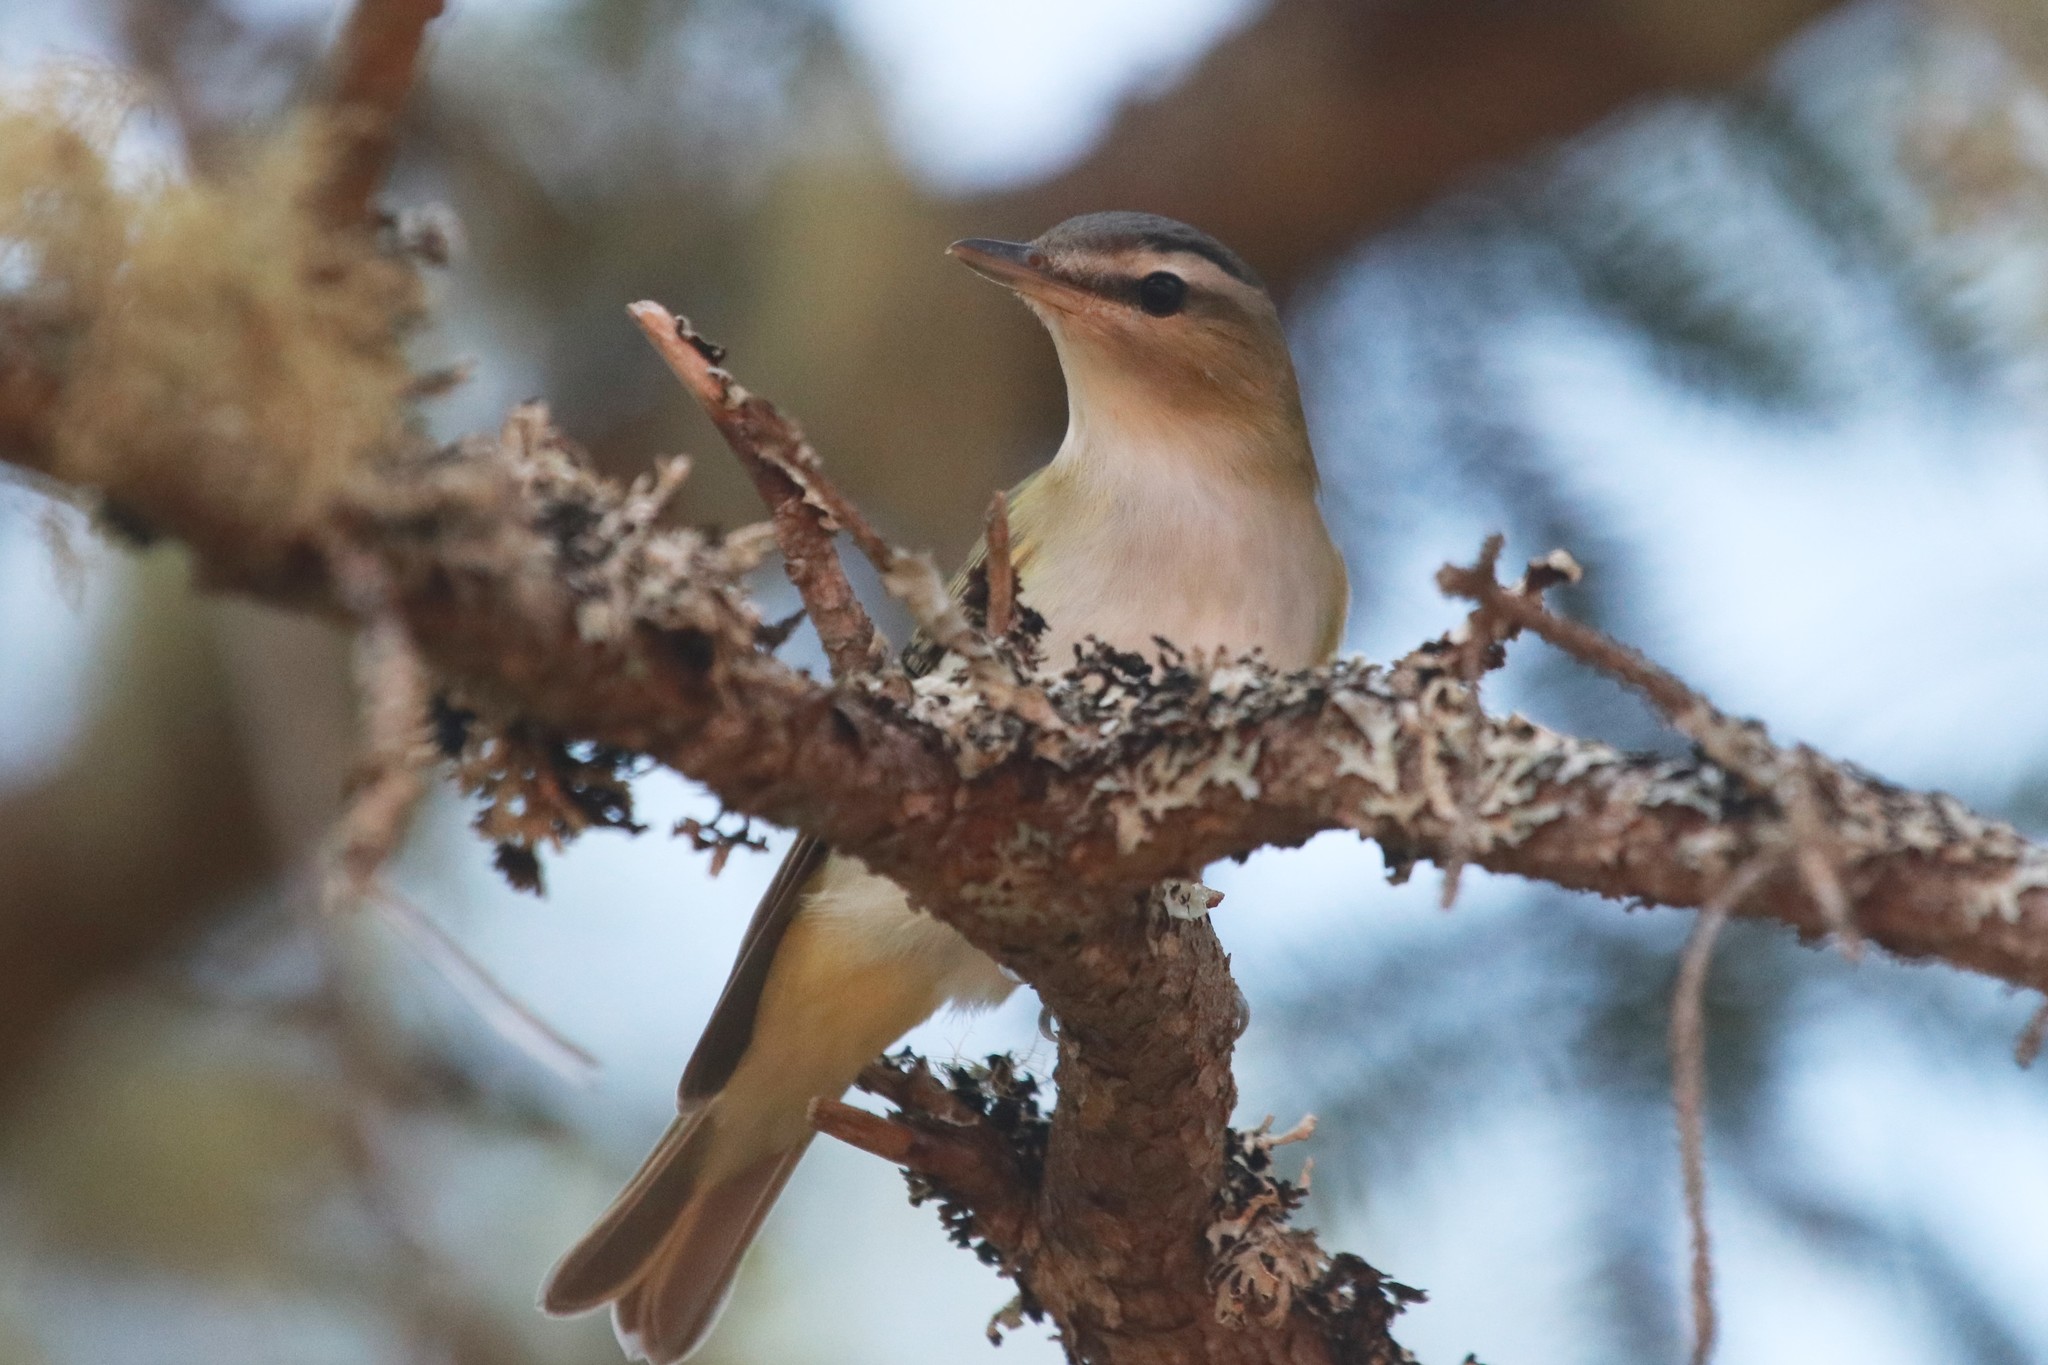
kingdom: Animalia
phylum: Chordata
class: Aves
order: Passeriformes
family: Vireonidae
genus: Vireo
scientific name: Vireo olivaceus
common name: Red-eyed vireo
